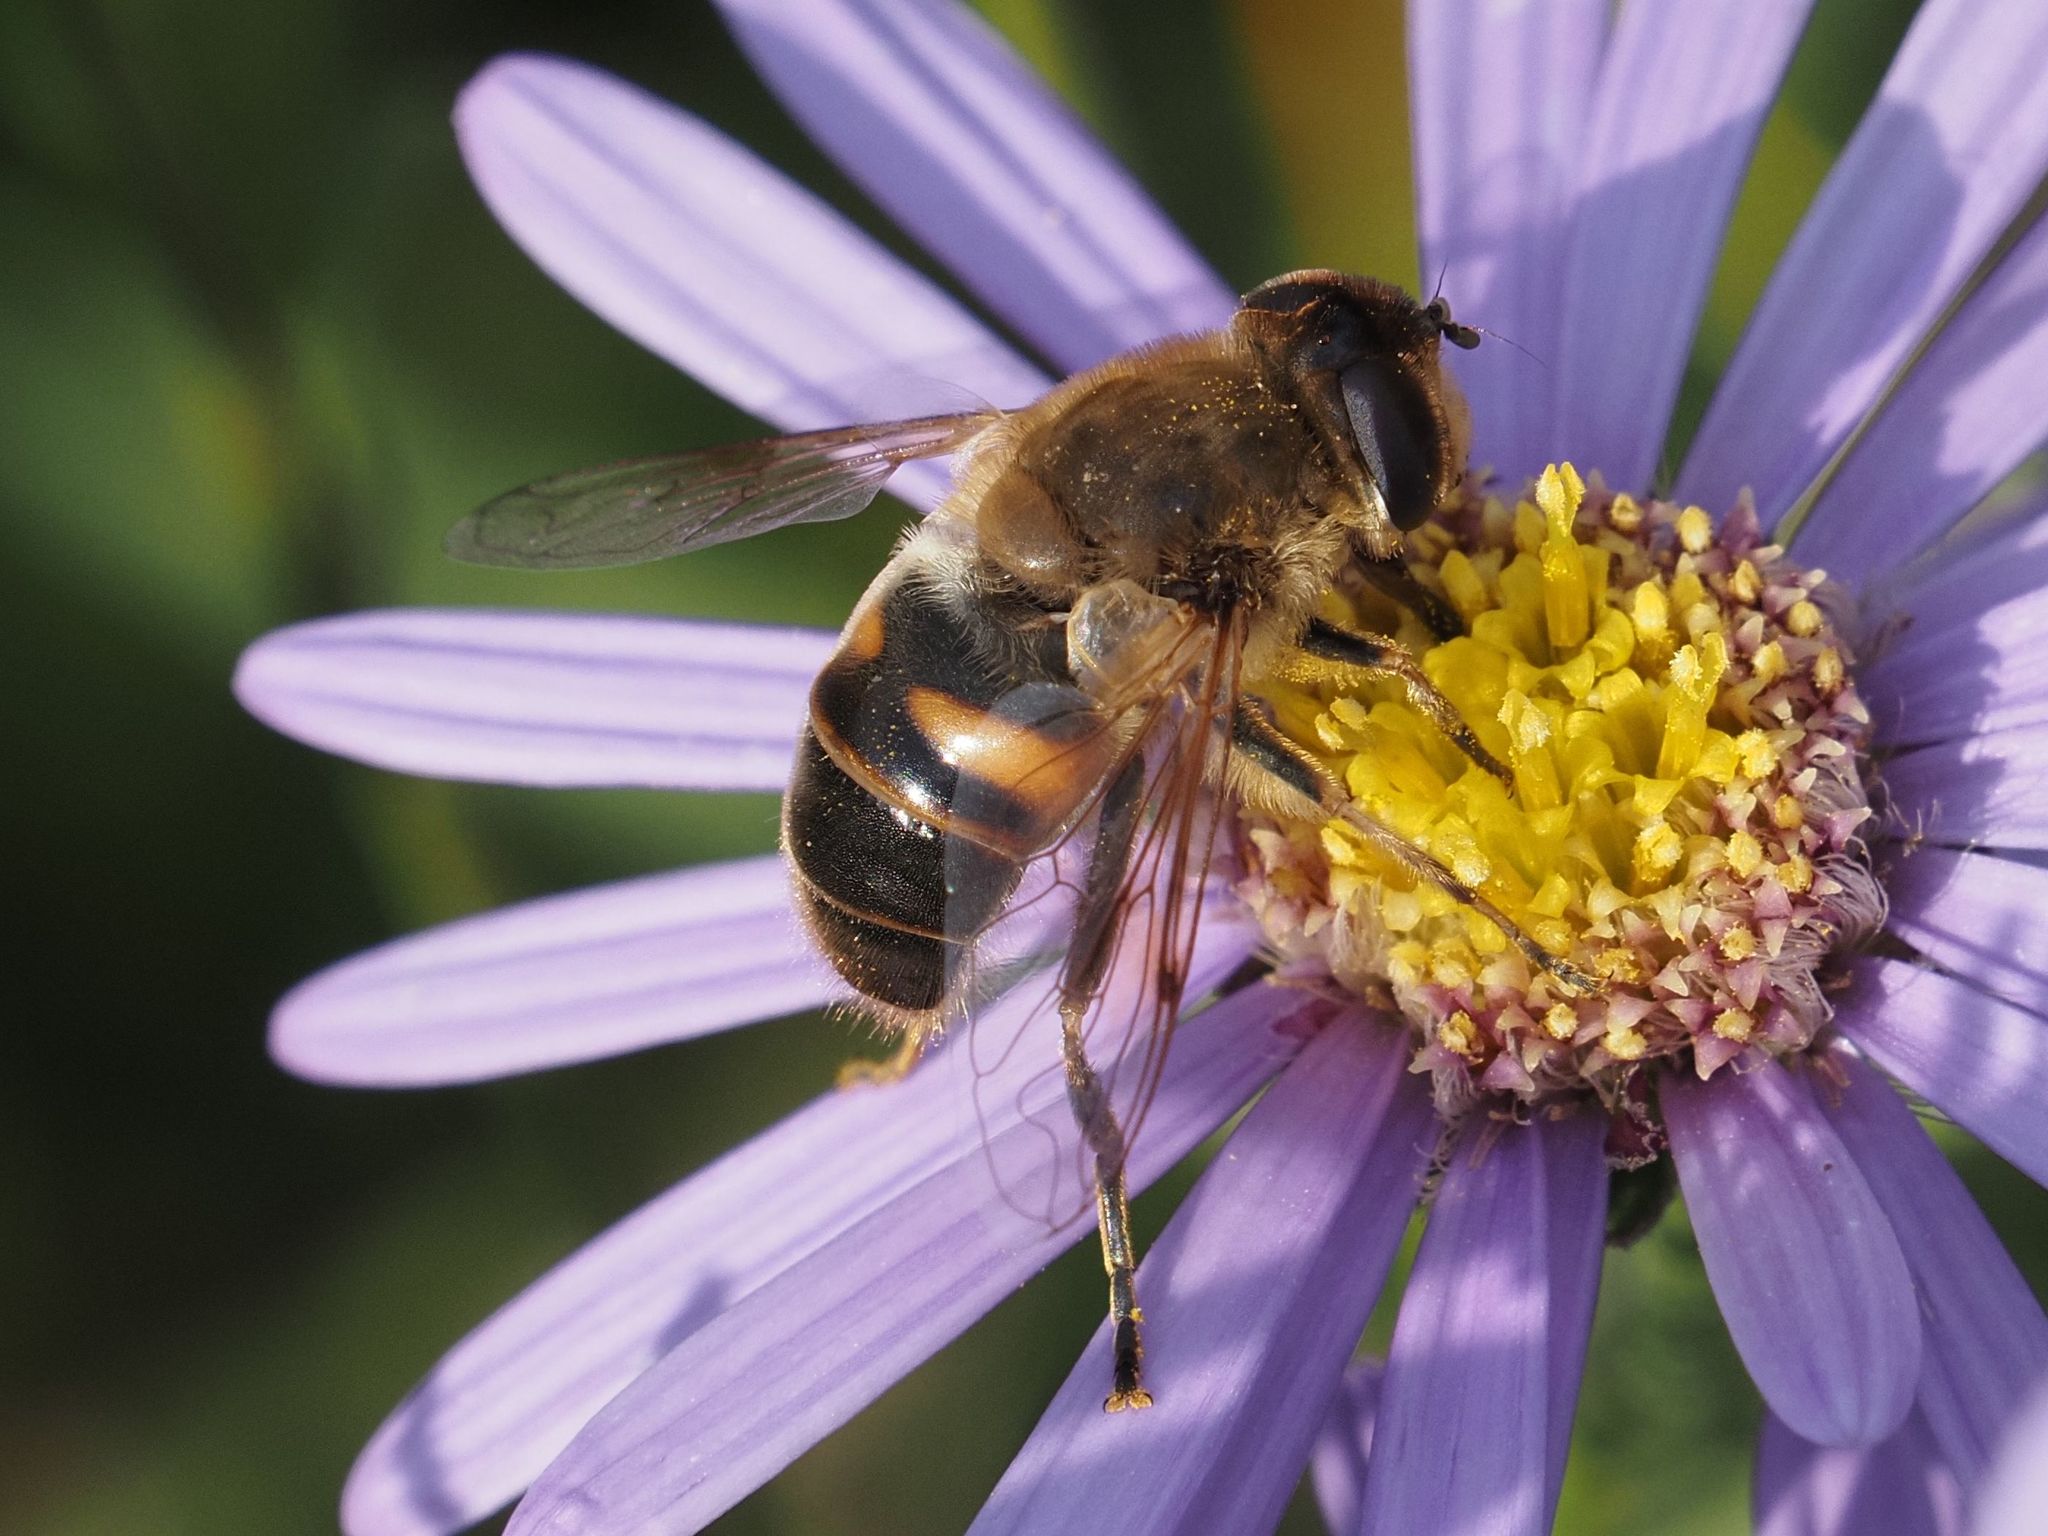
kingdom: Animalia
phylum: Arthropoda
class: Insecta
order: Diptera
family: Syrphidae
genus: Eristalis
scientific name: Eristalis tenax
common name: Drone fly
